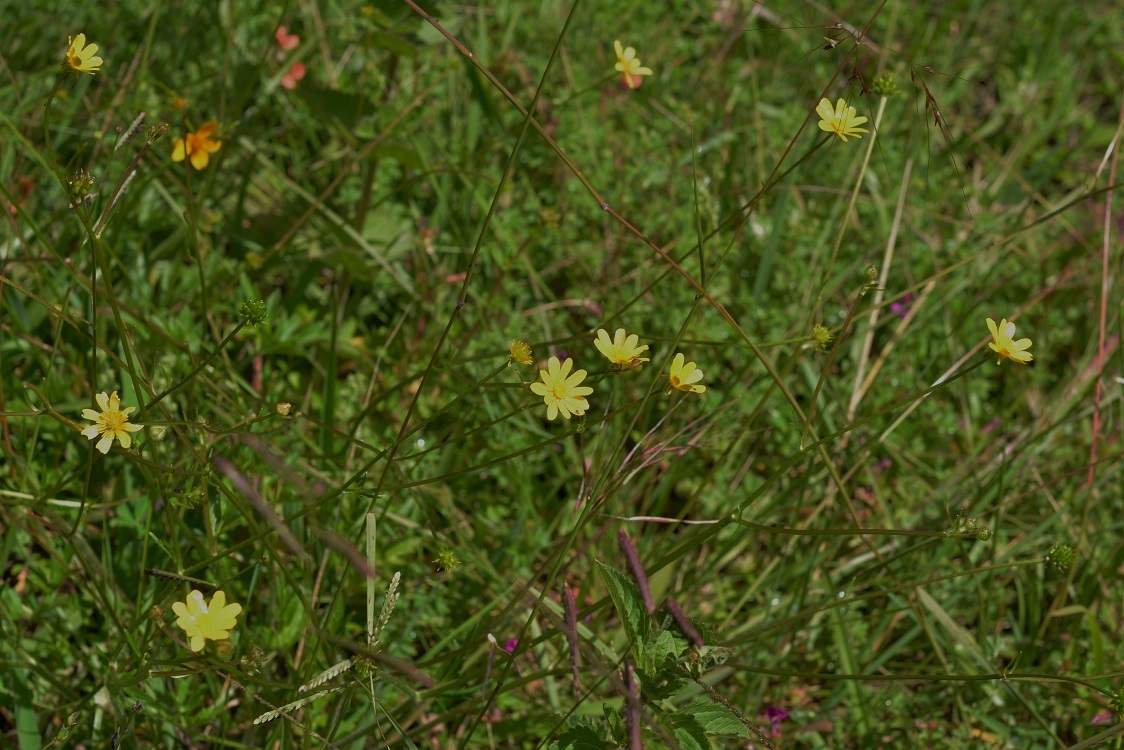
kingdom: Plantae
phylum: Tracheophyta
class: Magnoliopsida
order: Ranunculales
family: Ranunculaceae
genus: Ranunculus
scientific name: Ranunculus petiolaris
